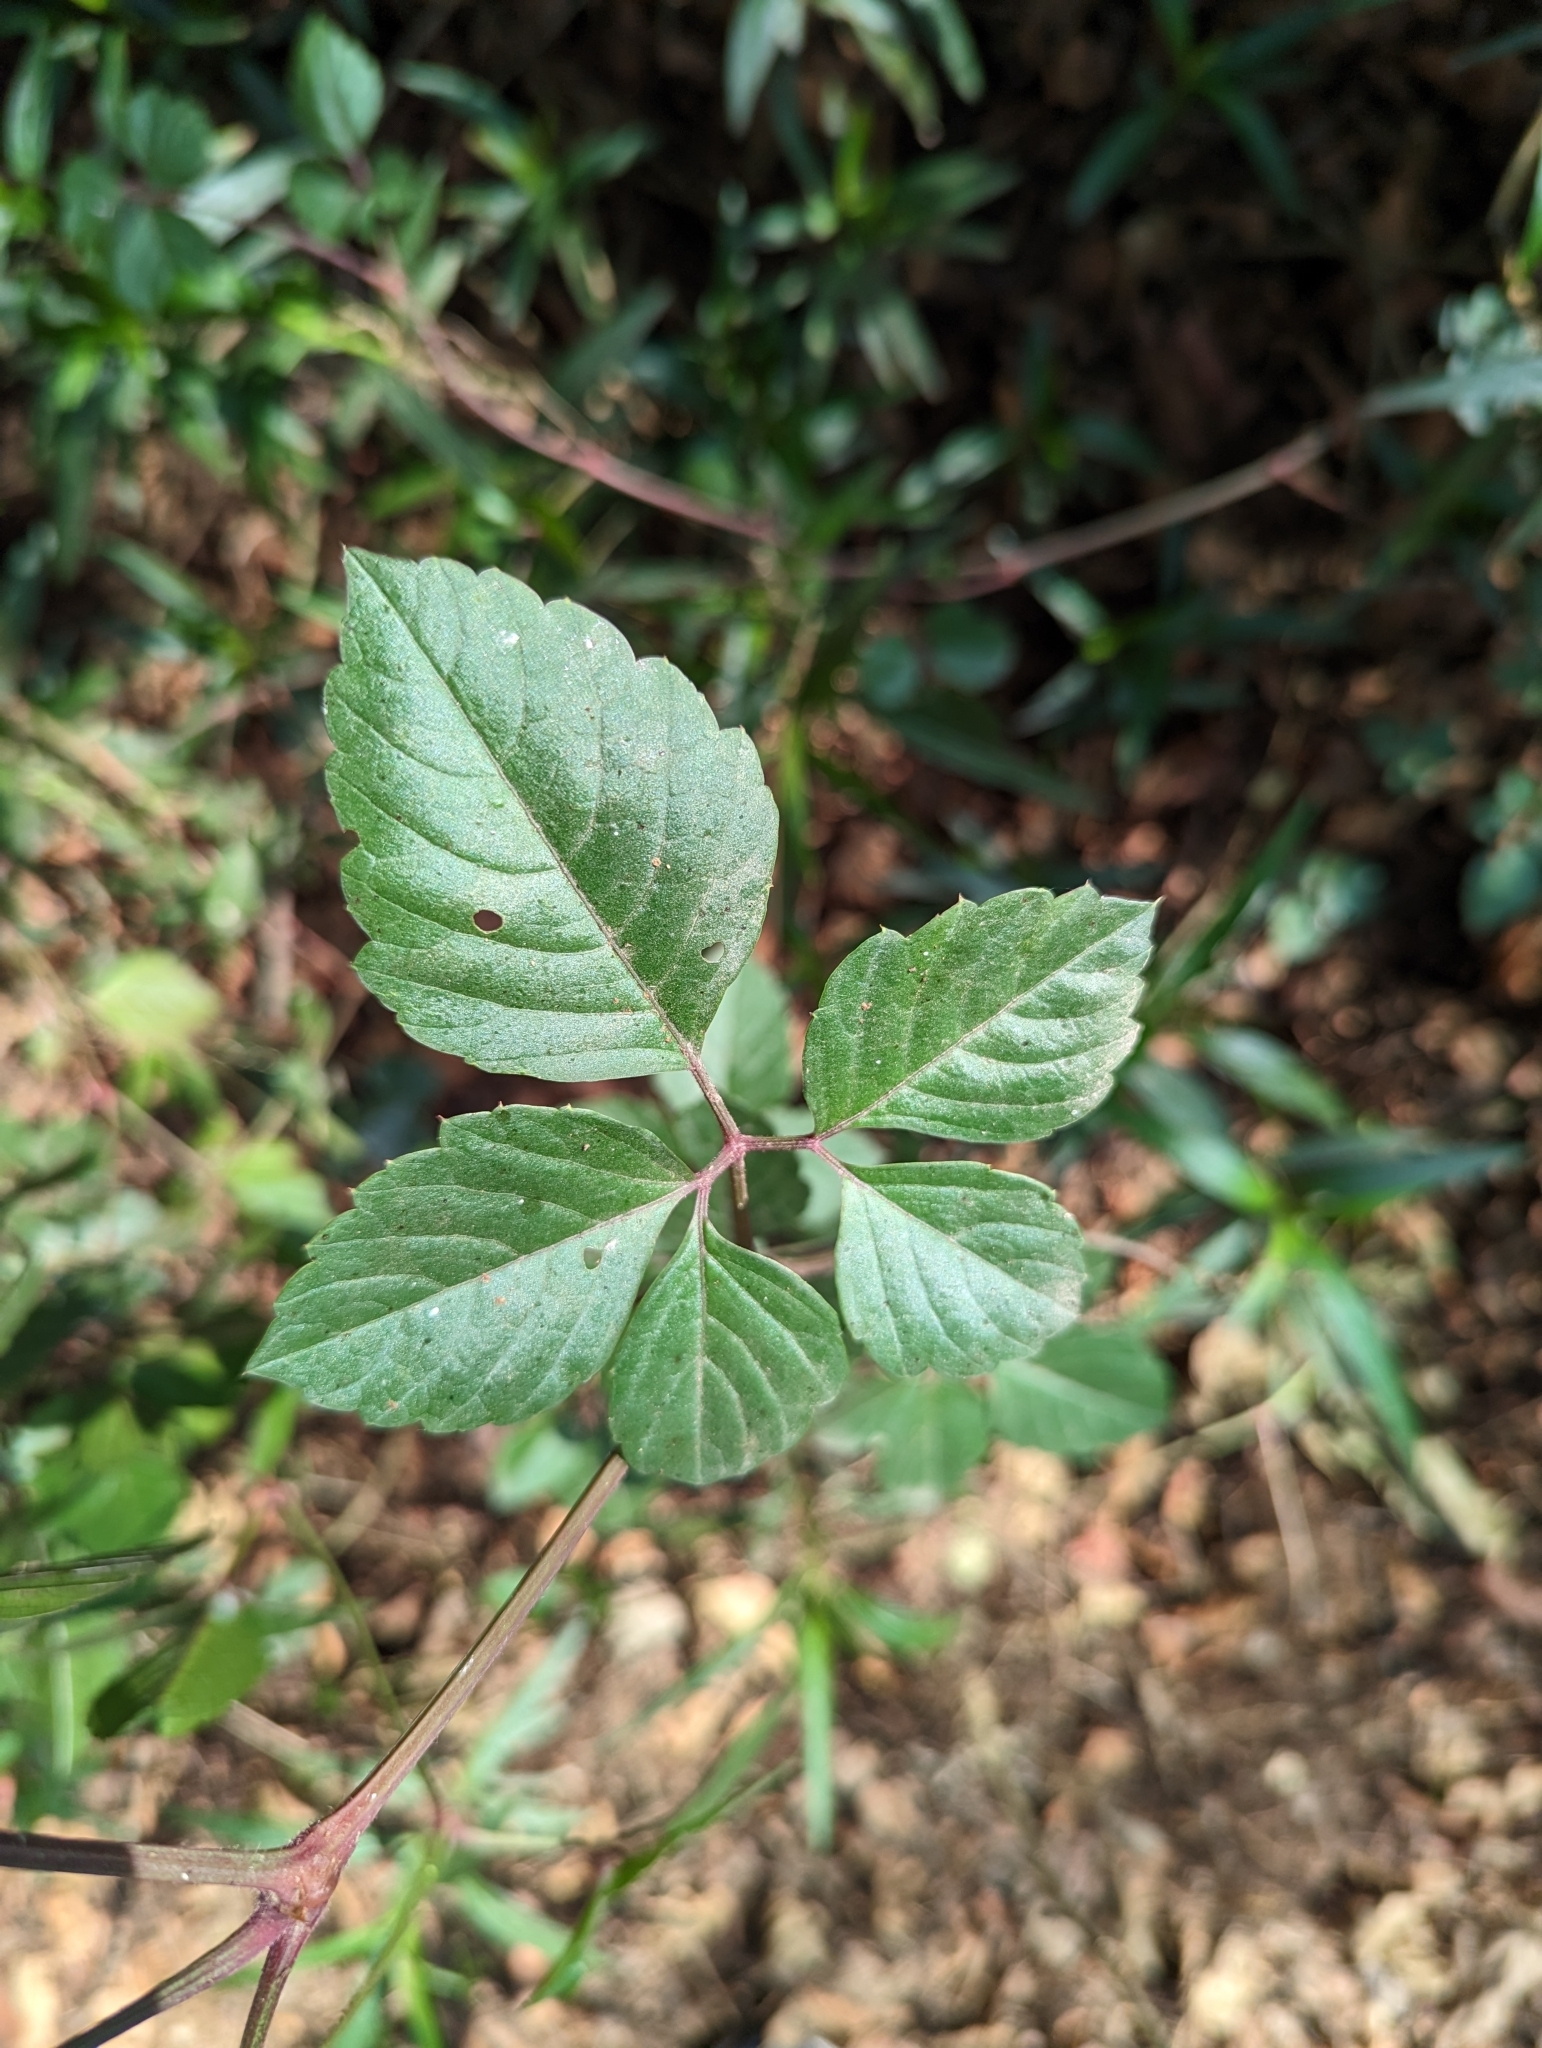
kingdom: Plantae
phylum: Tracheophyta
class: Magnoliopsida
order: Vitales
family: Vitaceae
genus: Causonis
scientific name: Causonis japonica
